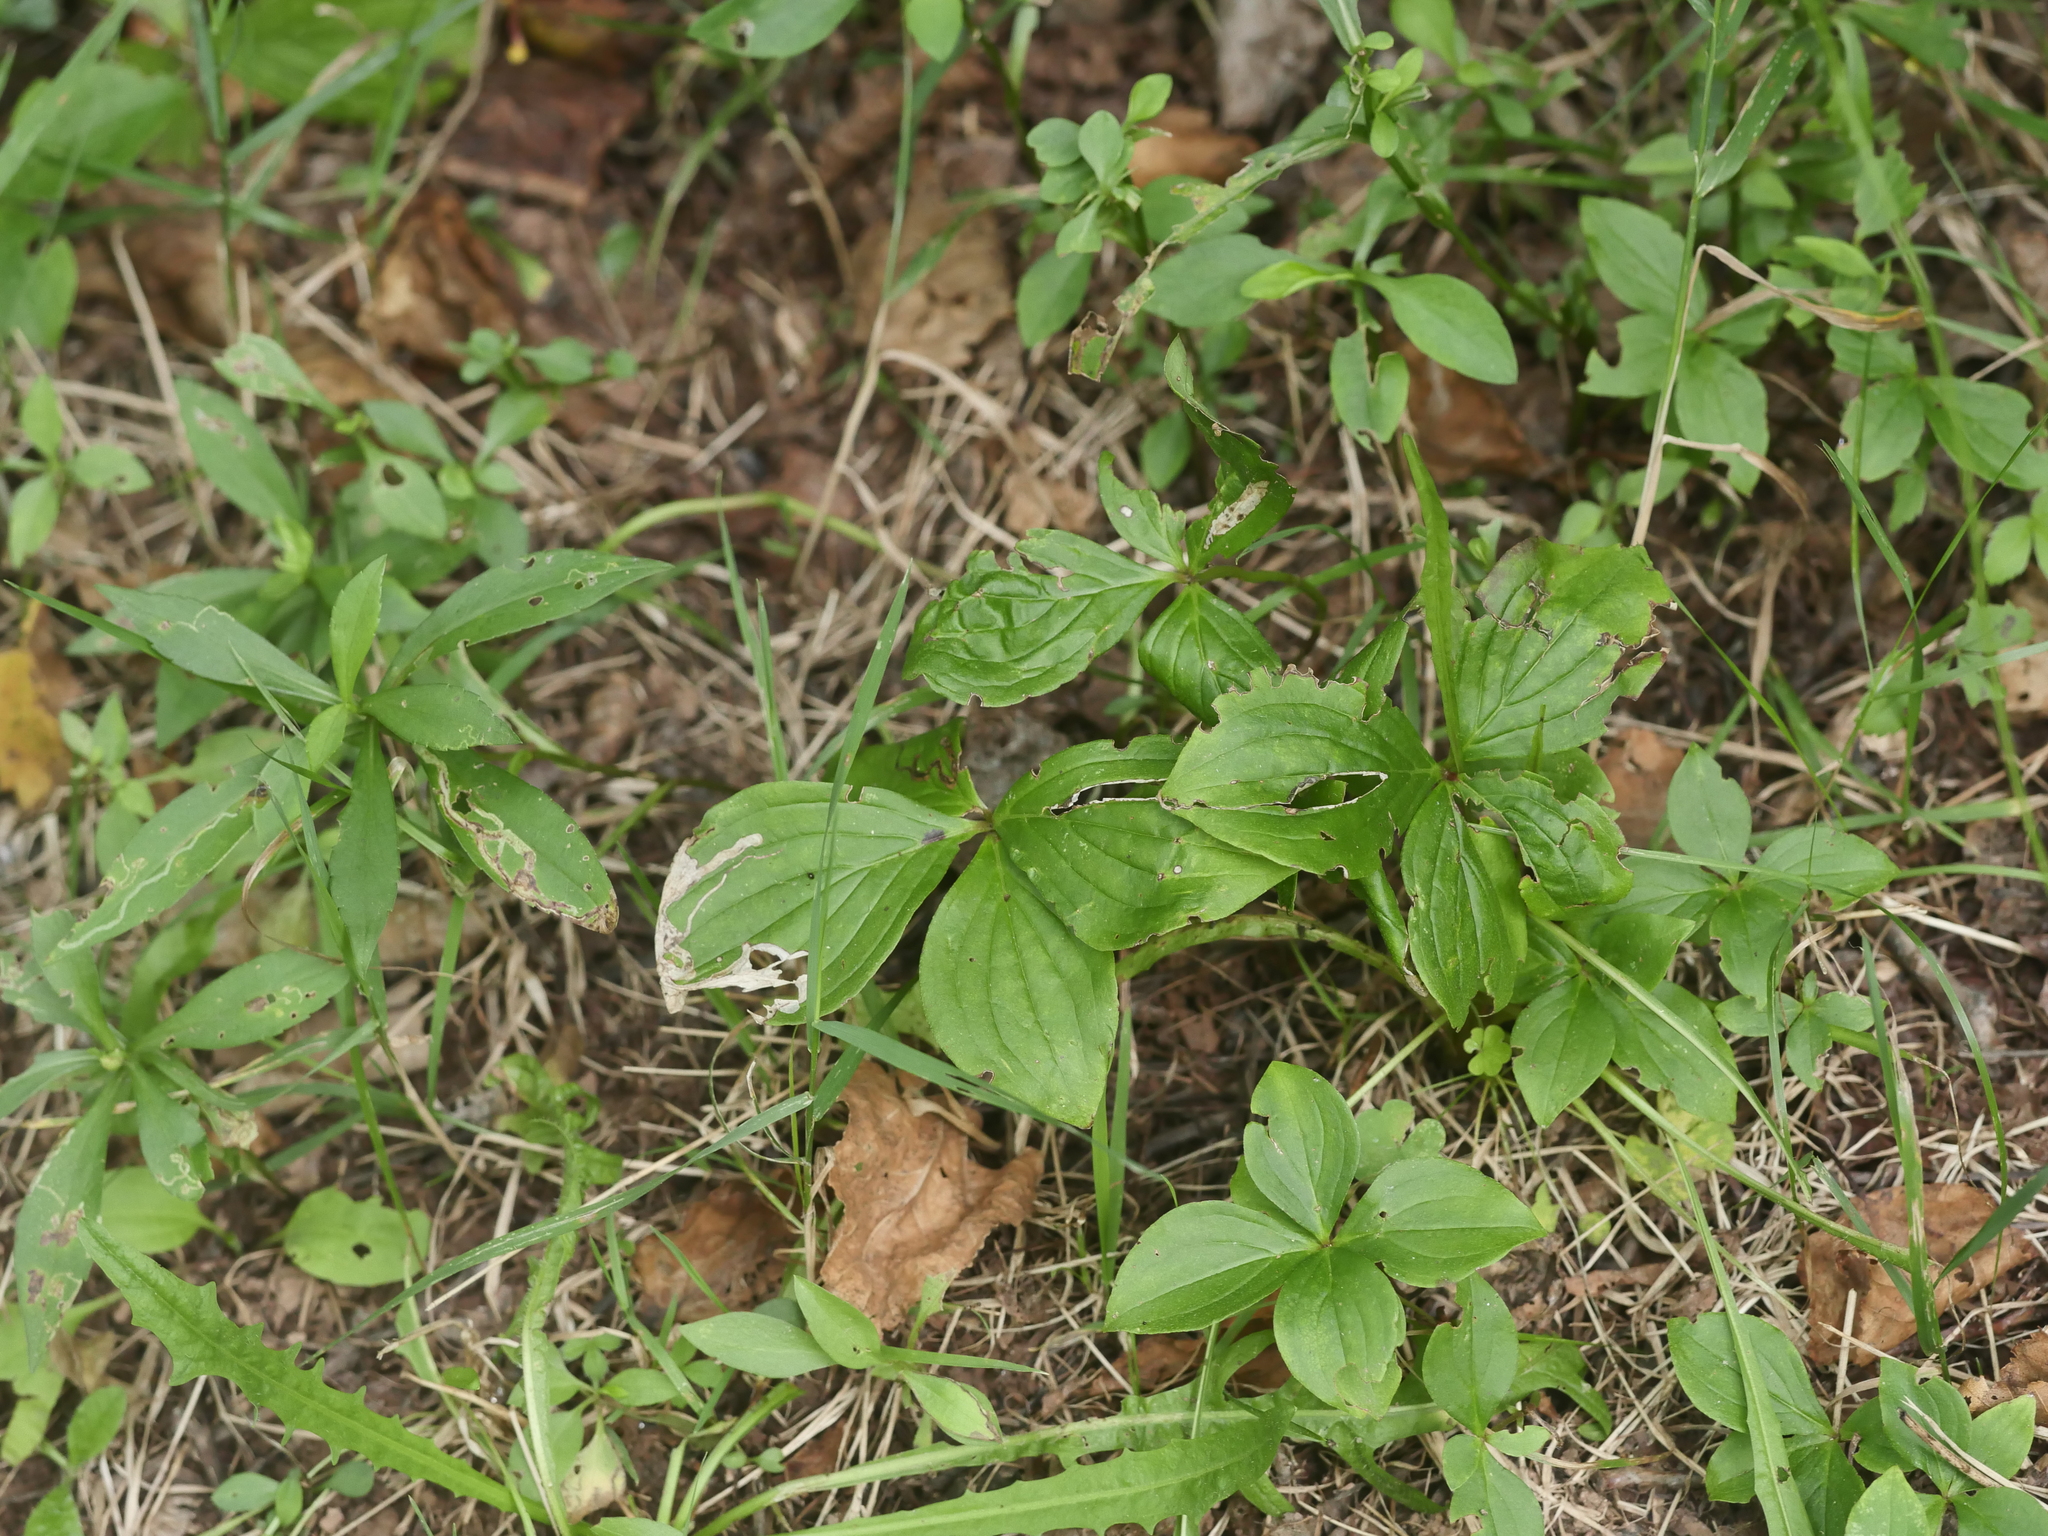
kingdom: Plantae
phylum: Tracheophyta
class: Magnoliopsida
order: Cornales
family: Cornaceae
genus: Cornus
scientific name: Cornus canadensis
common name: Creeping dogwood
